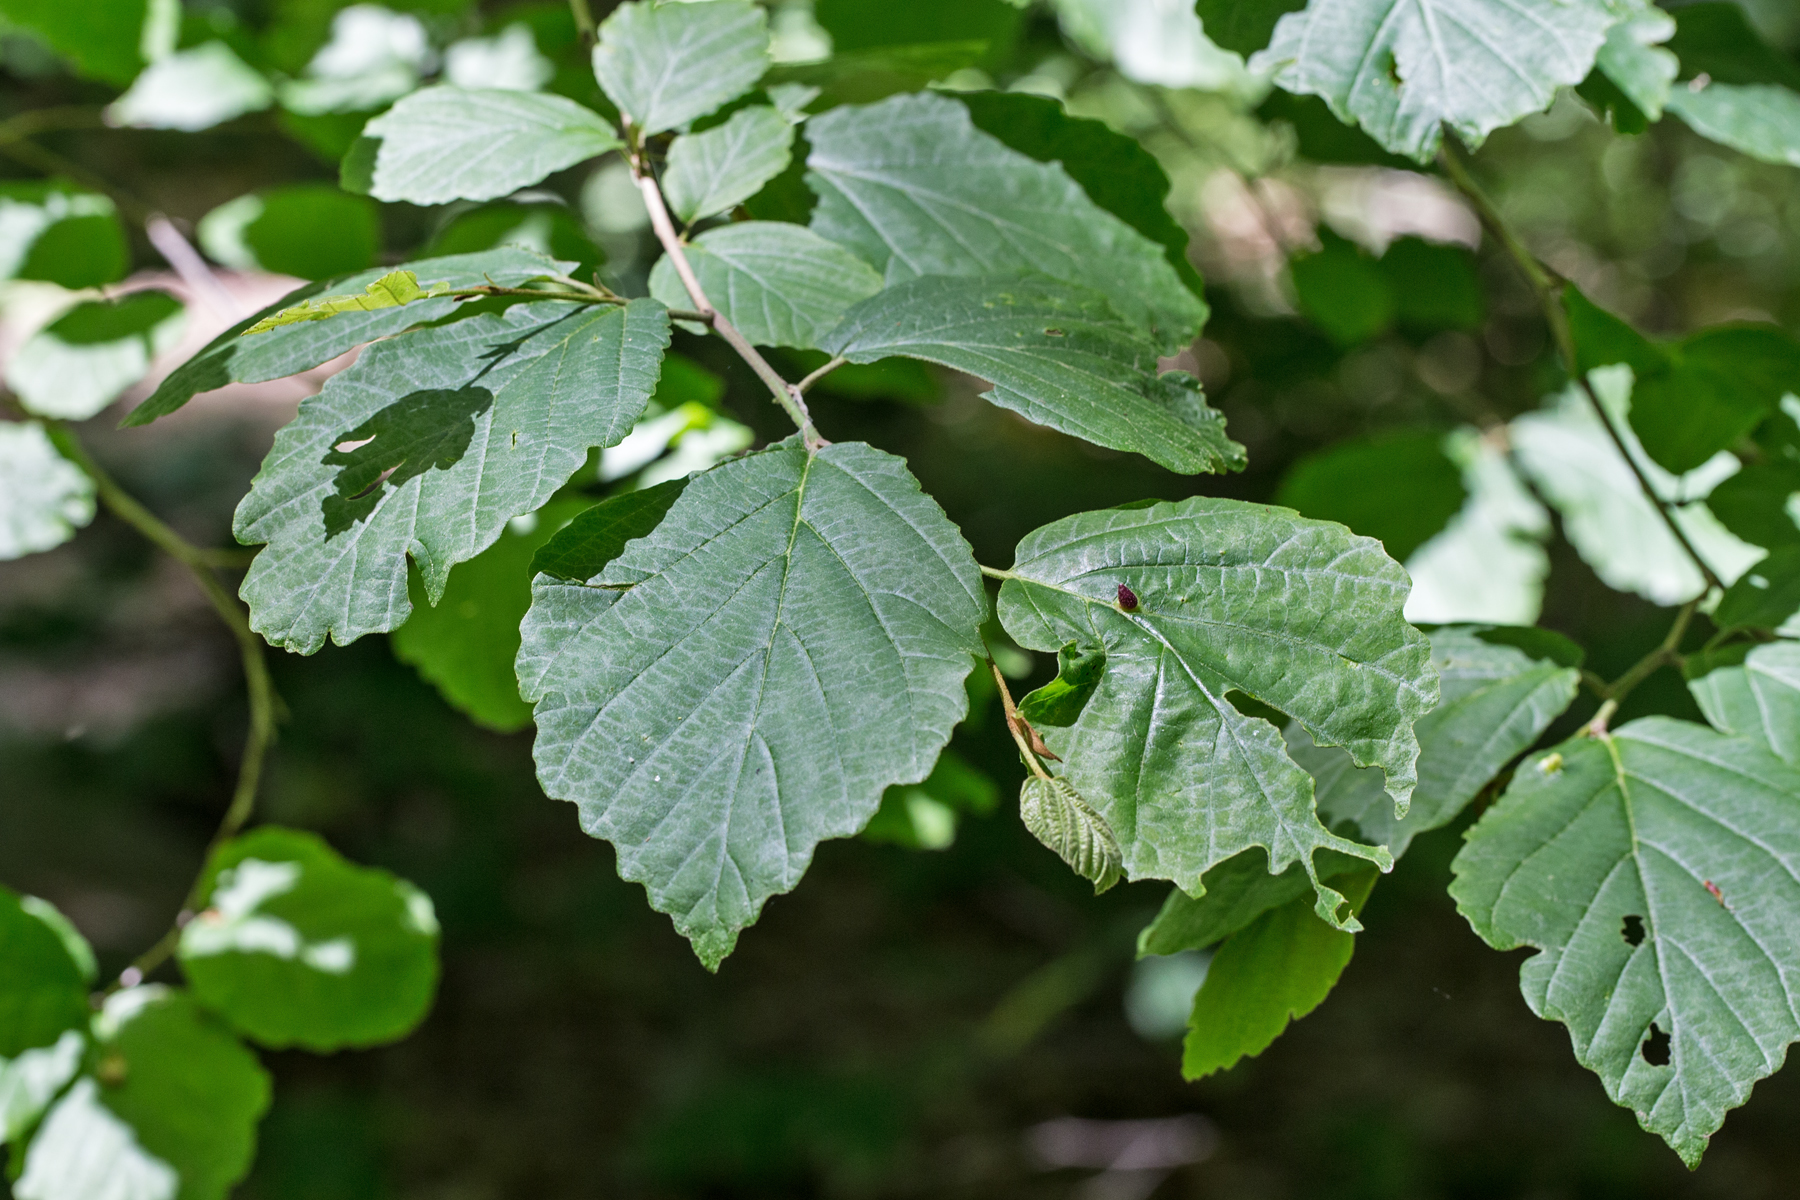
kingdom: Plantae
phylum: Tracheophyta
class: Magnoliopsida
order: Saxifragales
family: Hamamelidaceae
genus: Hamamelis
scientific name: Hamamelis virginiana
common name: Witch-hazel
